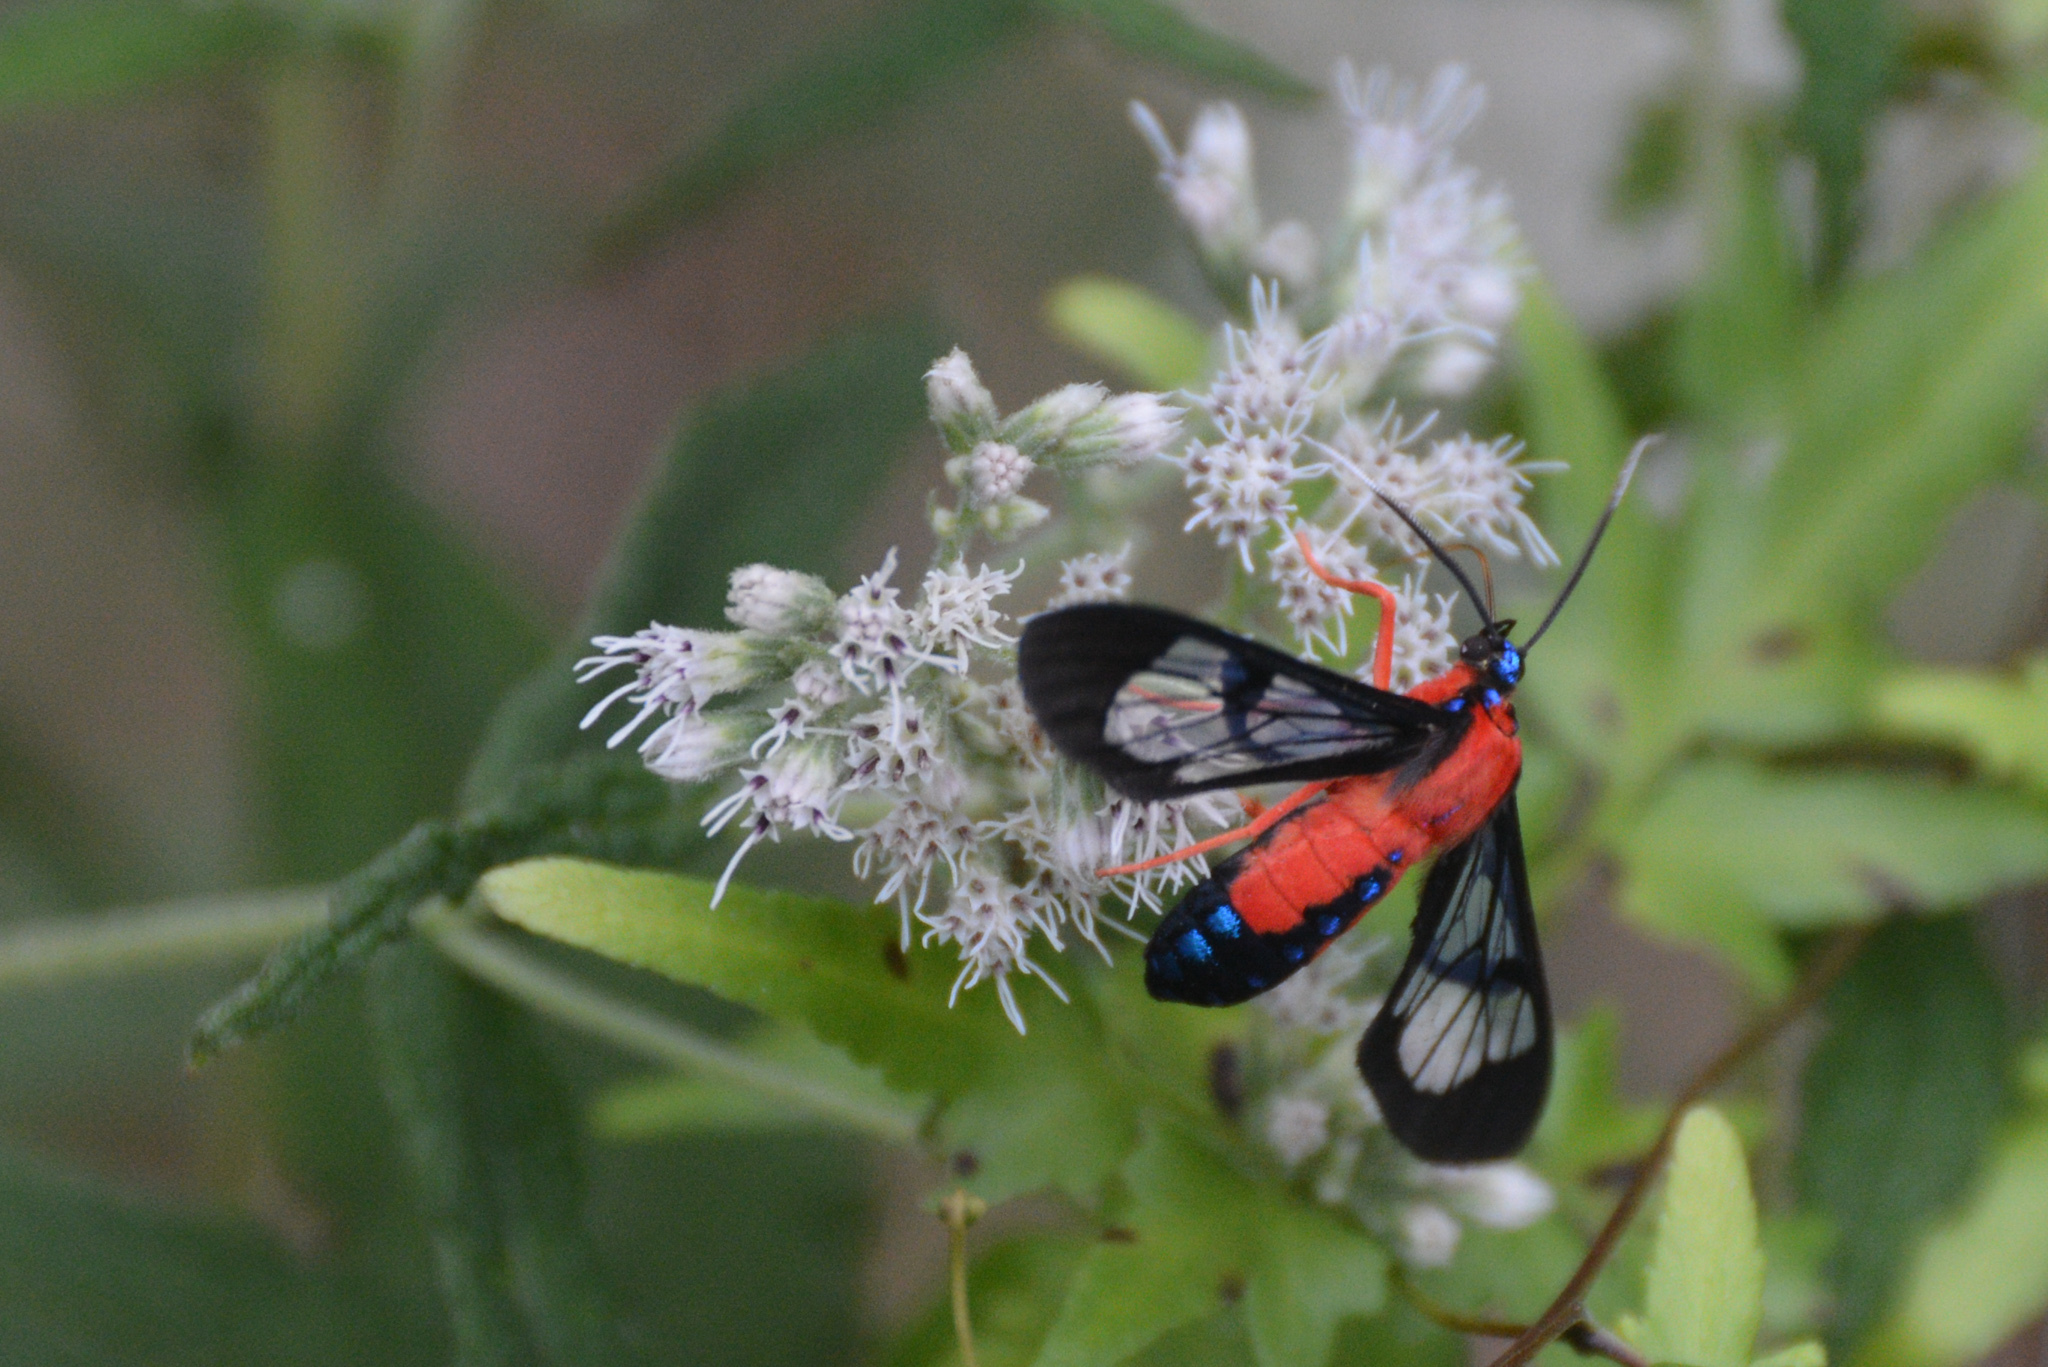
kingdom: Animalia
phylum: Arthropoda
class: Insecta
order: Lepidoptera
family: Erebidae
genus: Cosmosoma
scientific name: Cosmosoma myrodora
